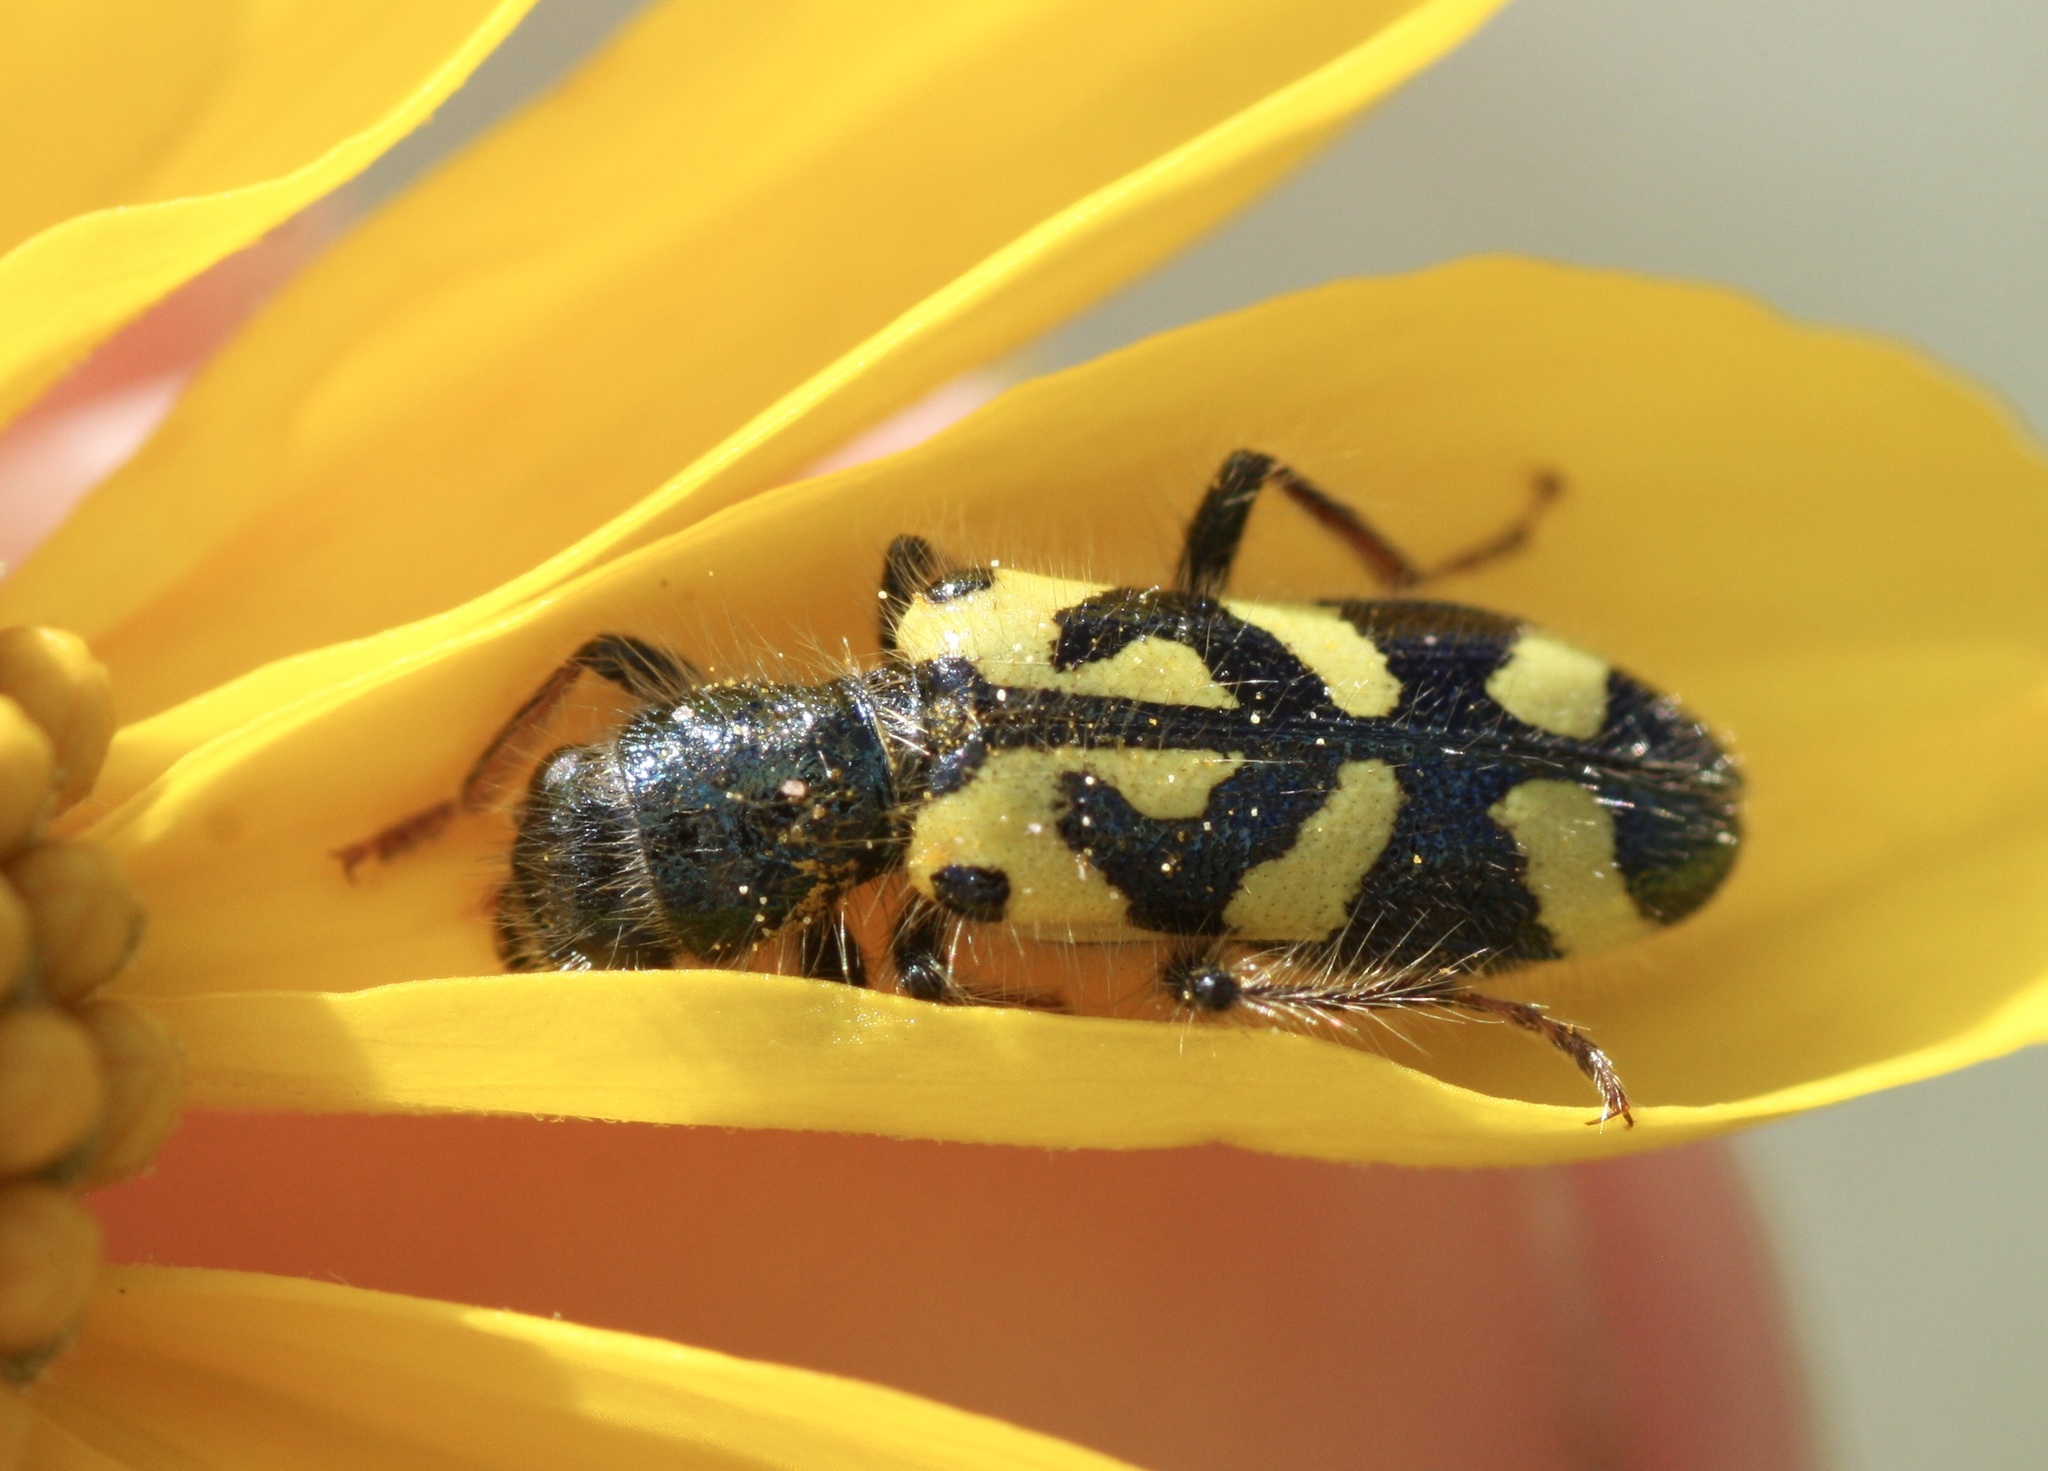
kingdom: Animalia
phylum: Arthropoda
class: Insecta
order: Coleoptera
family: Cleridae
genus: Trichodes
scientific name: Trichodes ornatus
